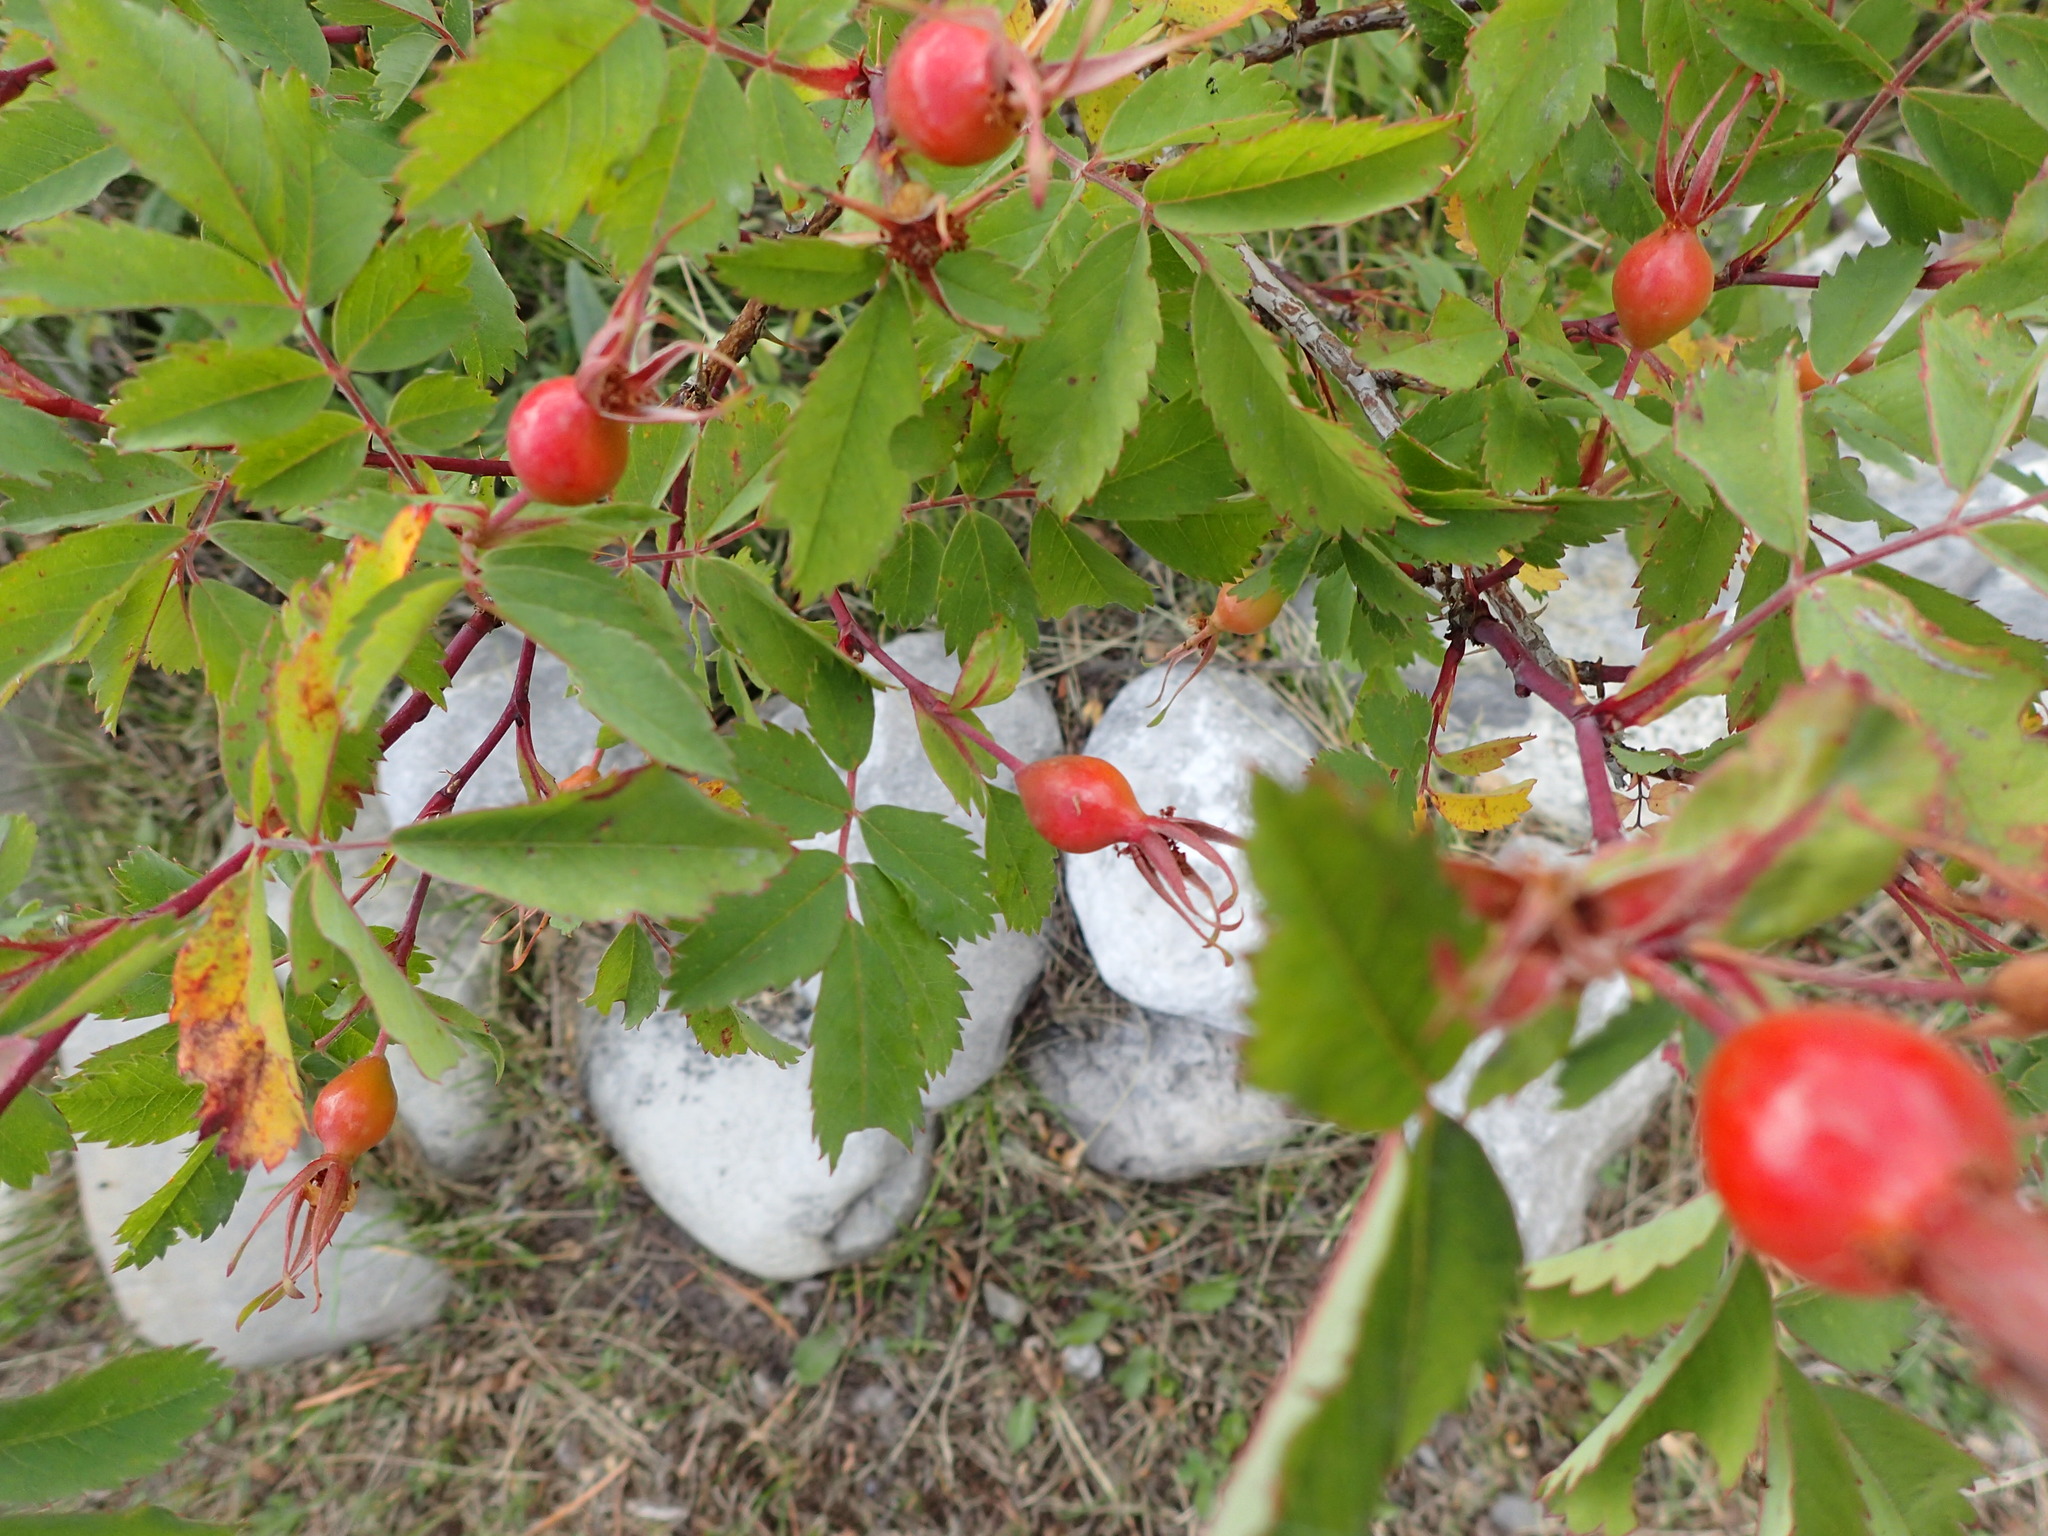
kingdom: Plantae
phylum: Tracheophyta
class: Magnoliopsida
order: Rosales
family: Rosaceae
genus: Rosa
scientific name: Rosa acicularis
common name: Prickly rose
